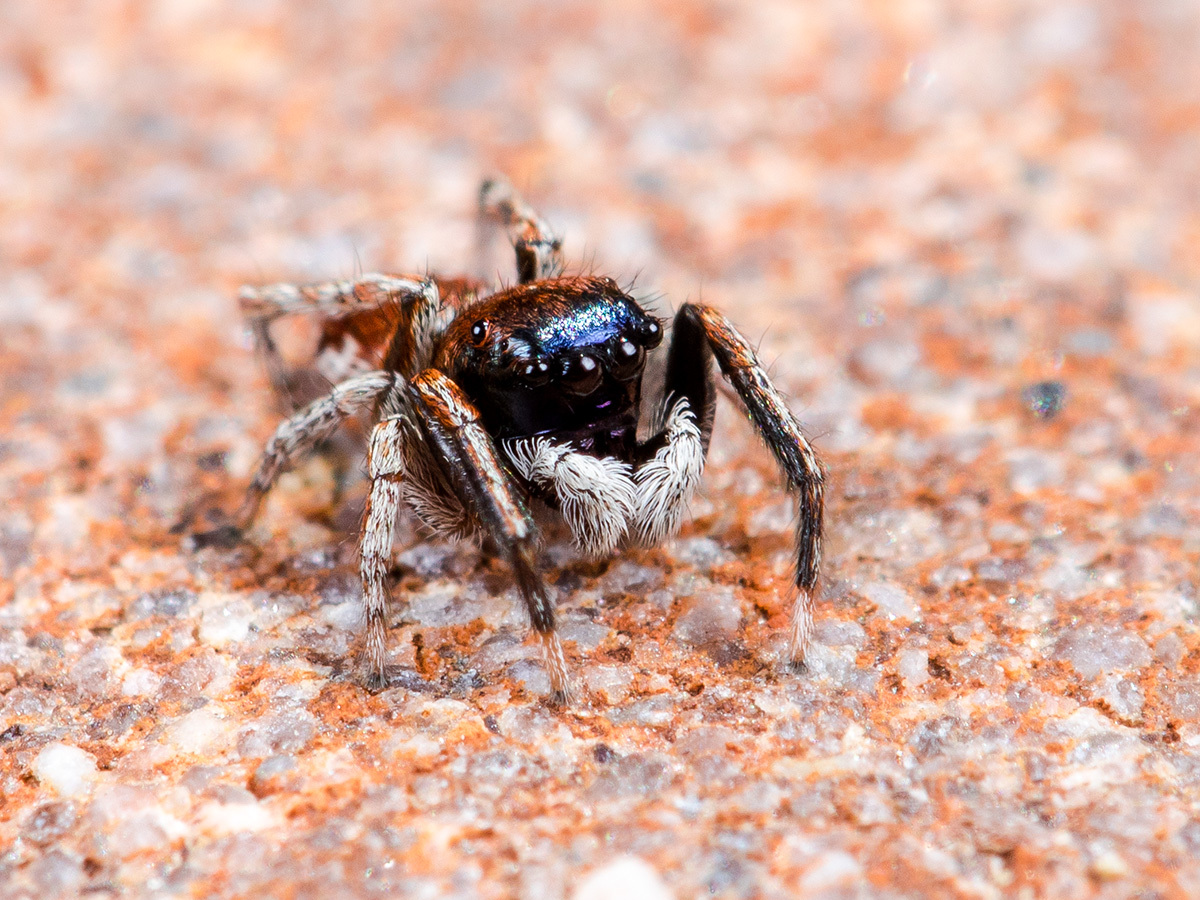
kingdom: Animalia
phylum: Arthropoda
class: Arachnida
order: Araneae
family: Salticidae
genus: Attulus
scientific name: Attulus mirandus
